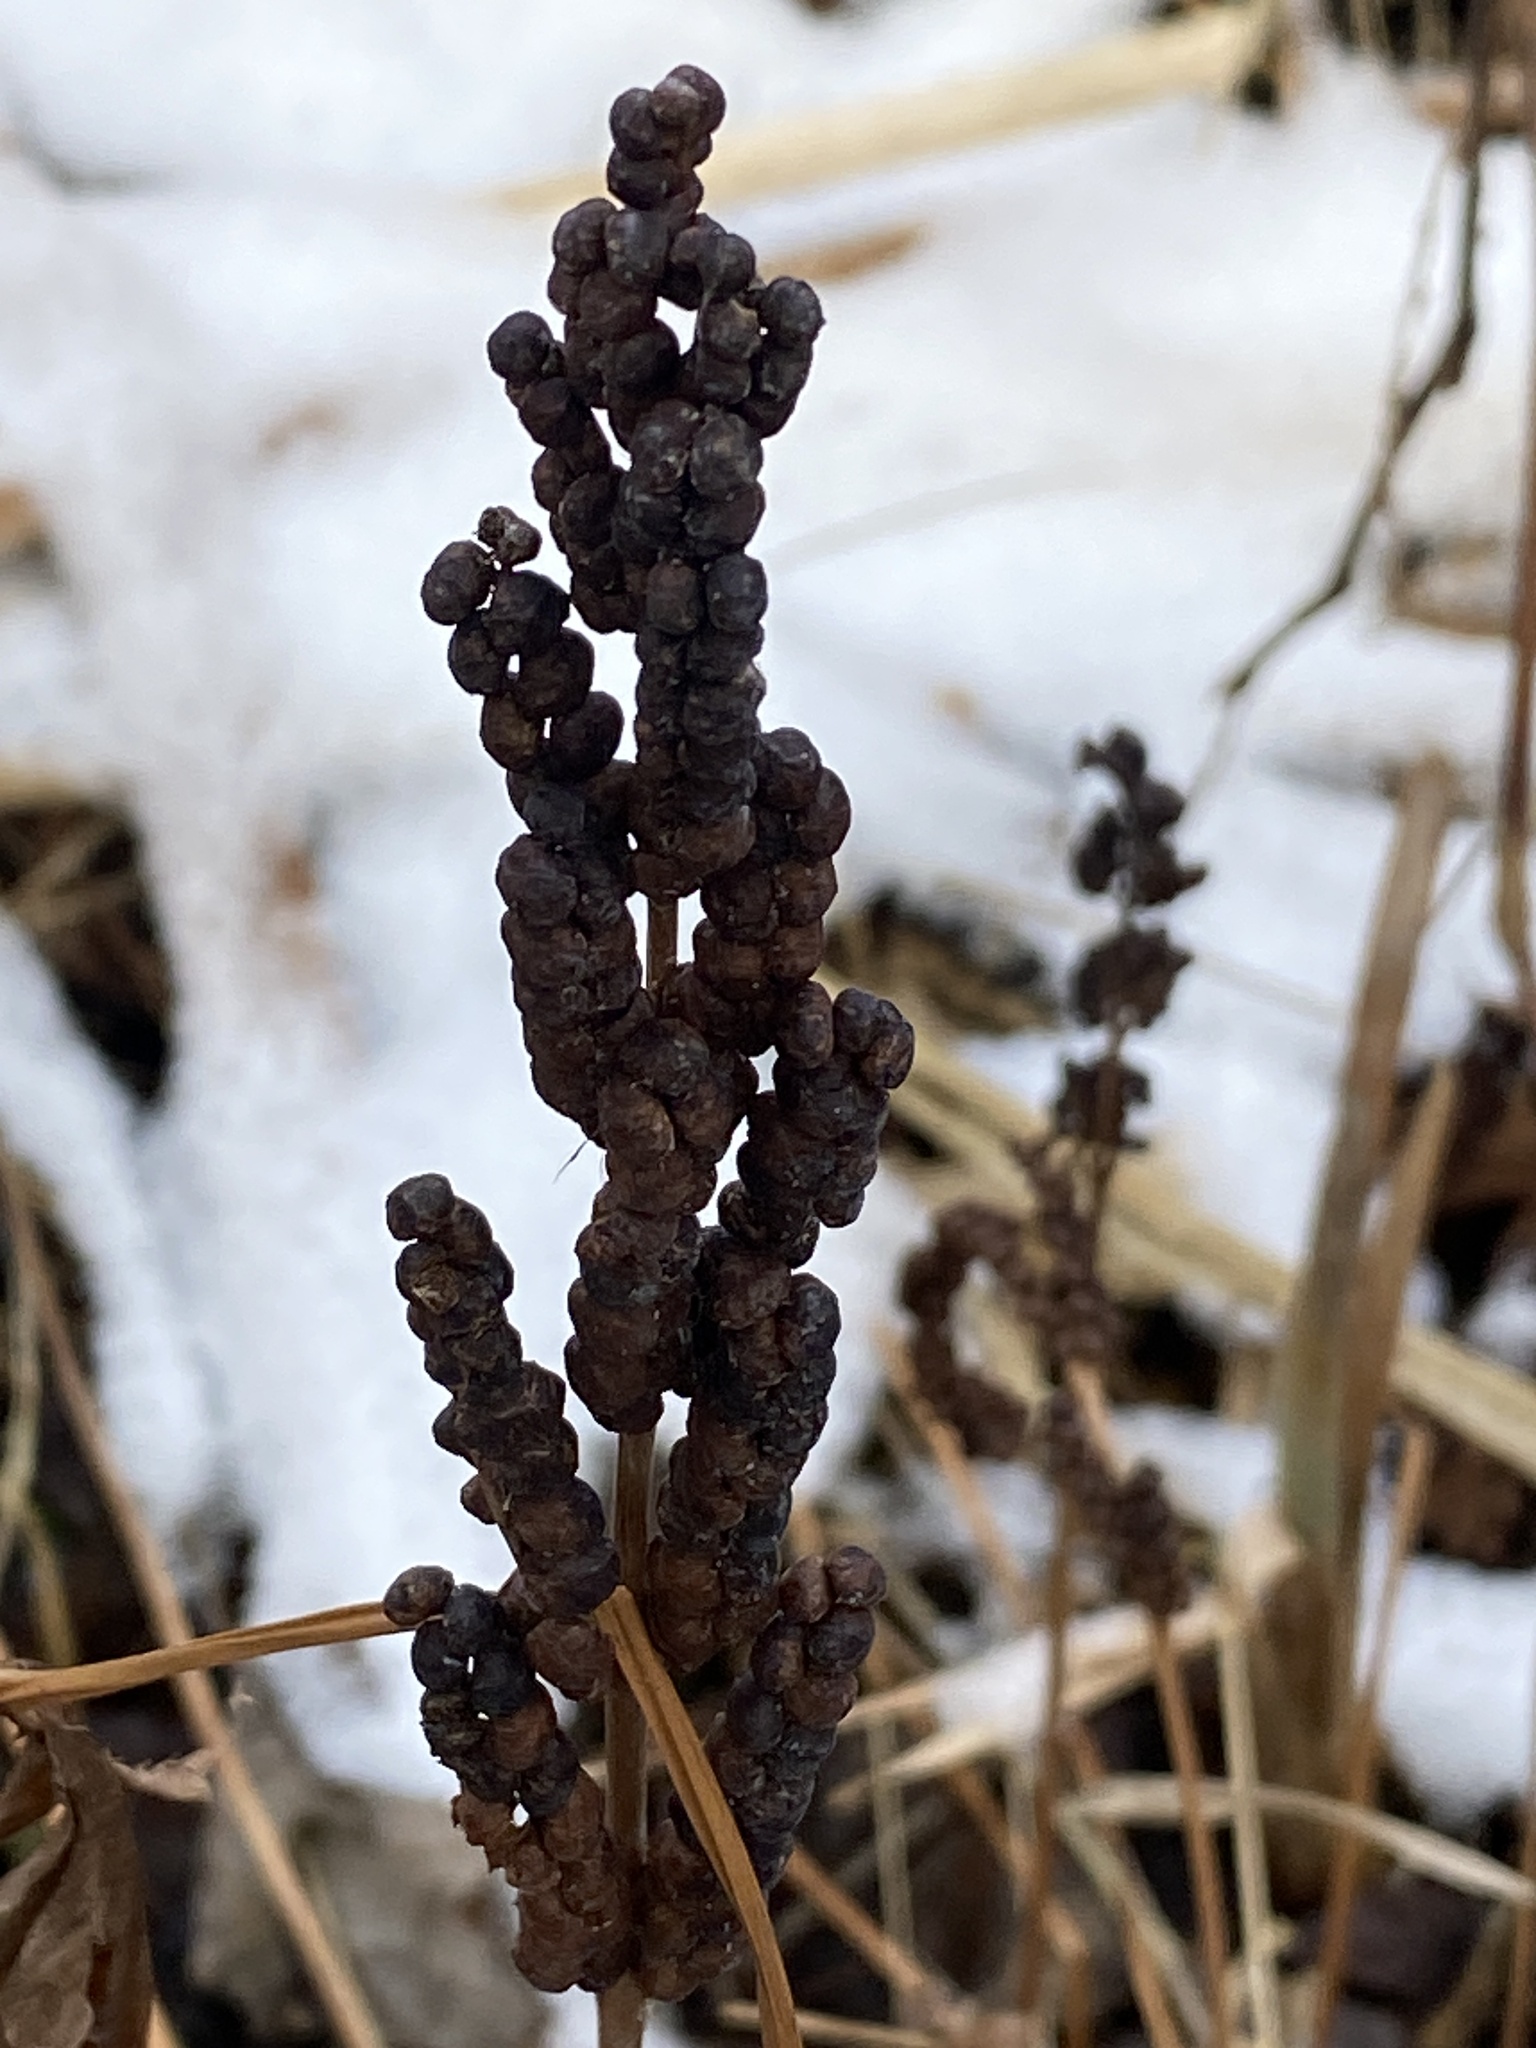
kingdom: Plantae
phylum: Tracheophyta
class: Polypodiopsida
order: Polypodiales
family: Onocleaceae
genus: Onoclea
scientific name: Onoclea sensibilis
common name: Sensitive fern
